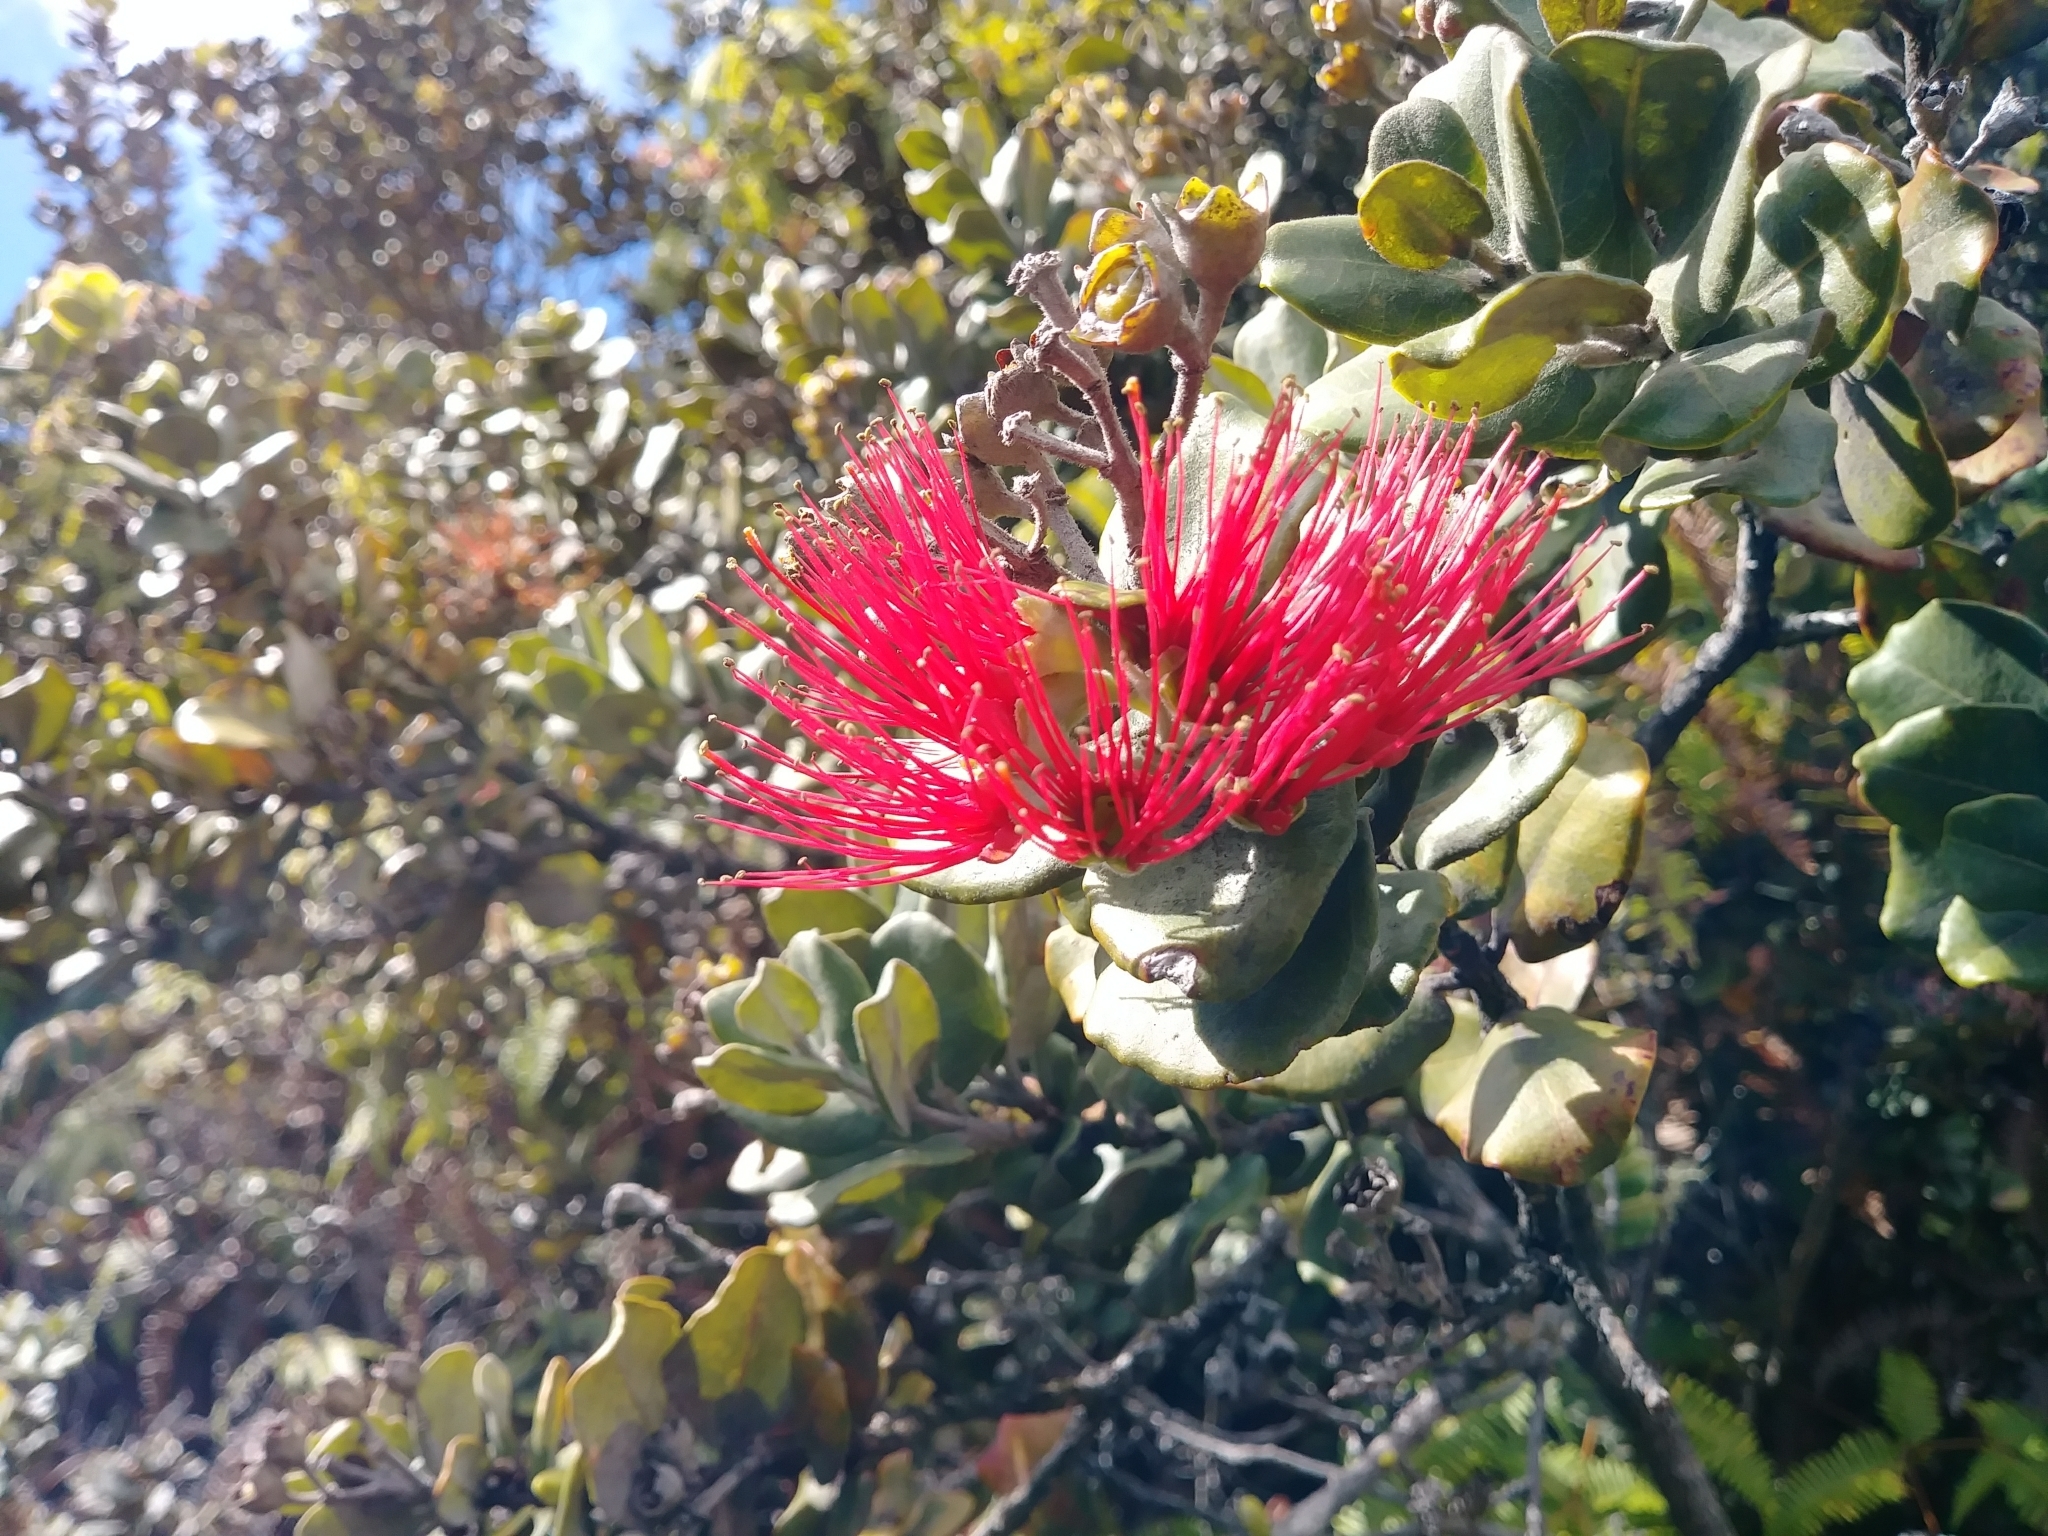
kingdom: Plantae
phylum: Tracheophyta
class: Magnoliopsida
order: Myrtales
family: Myrtaceae
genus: Metrosideros
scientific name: Metrosideros polymorpha
